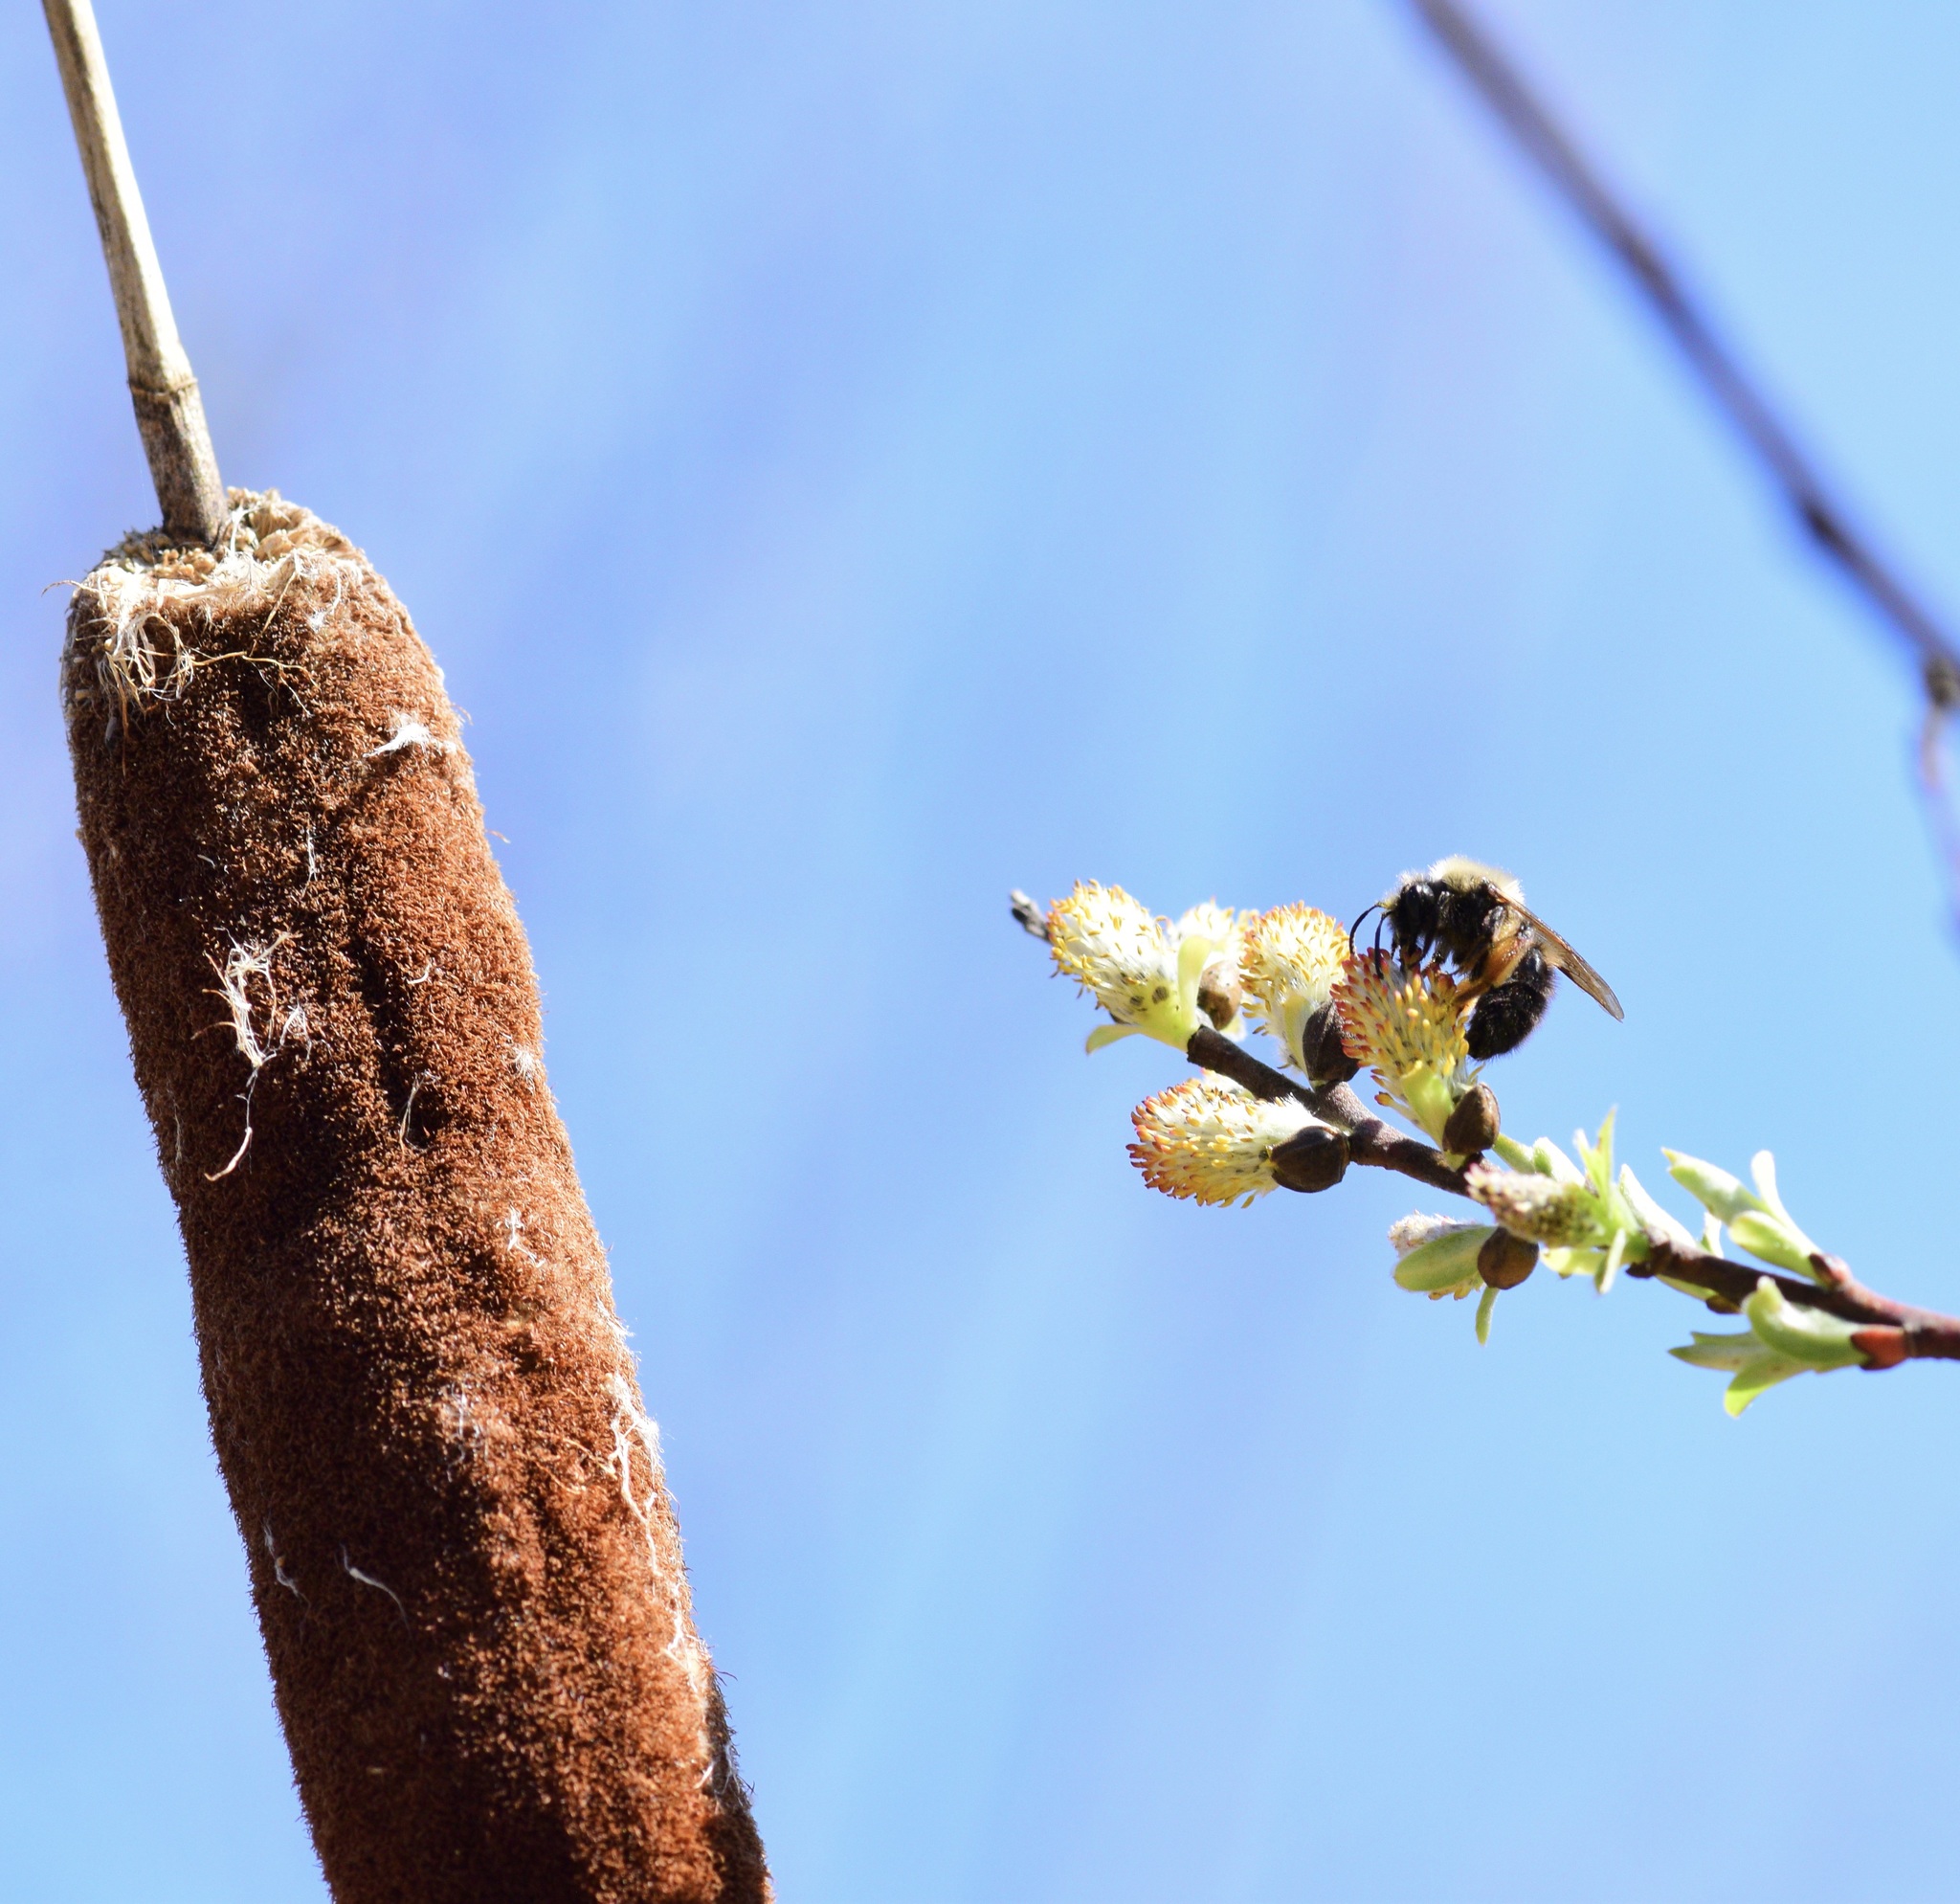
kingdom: Animalia
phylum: Arthropoda
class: Insecta
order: Hymenoptera
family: Andrenidae
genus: Andrena
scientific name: Andrena clarkella
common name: Clarke's mining bee
